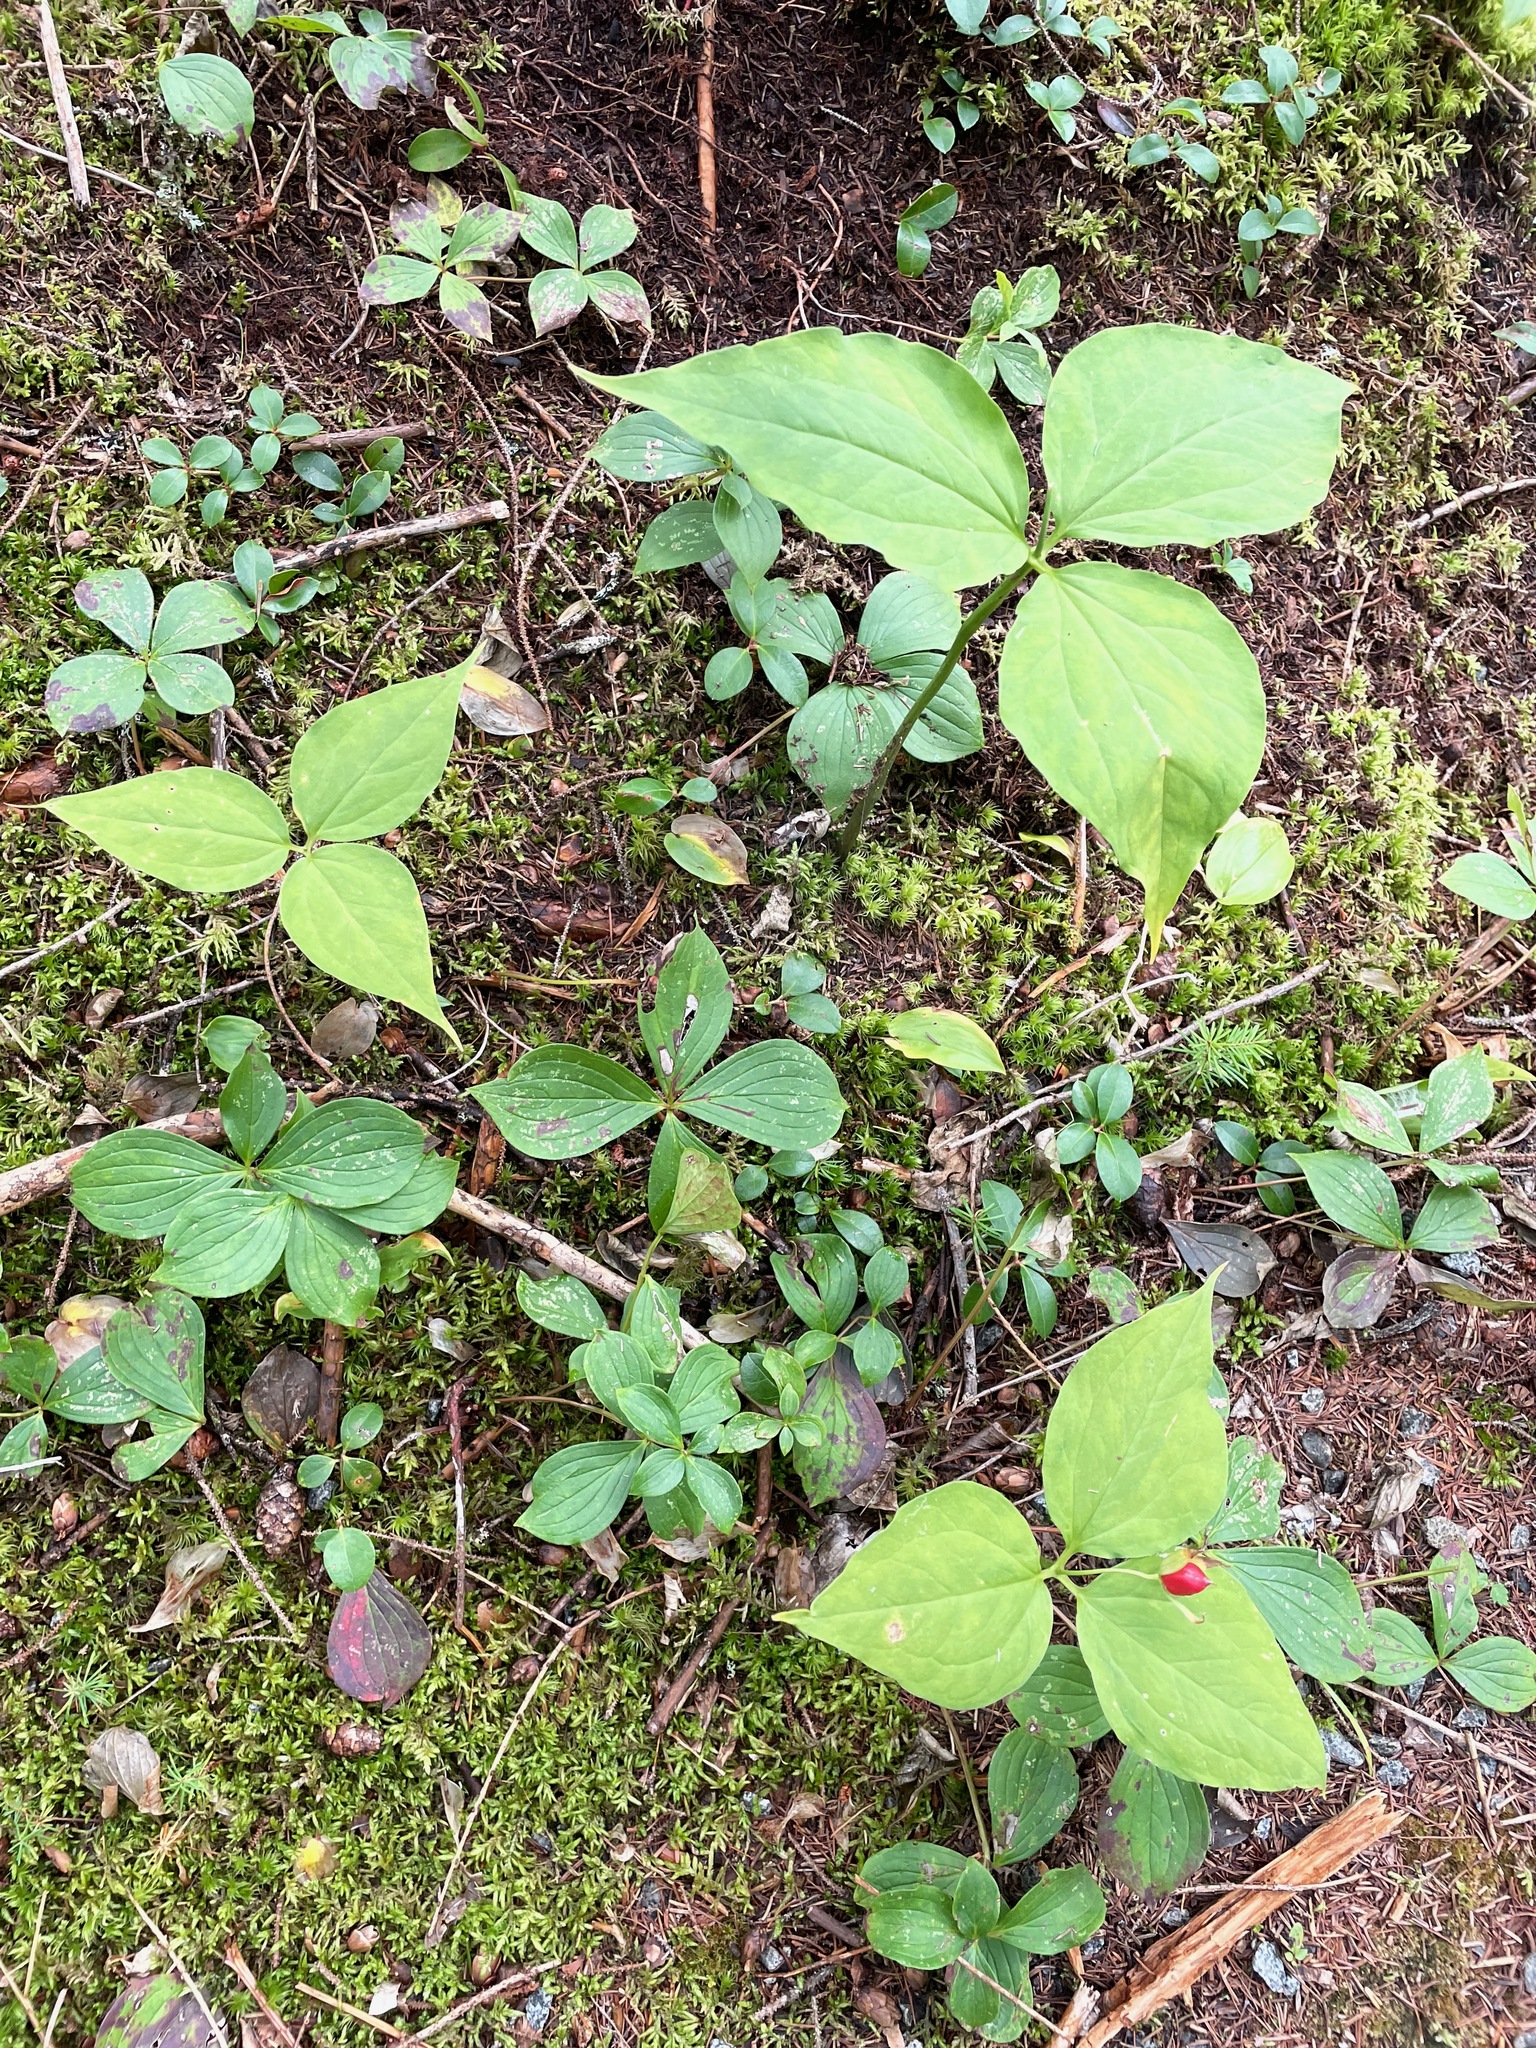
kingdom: Plantae
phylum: Tracheophyta
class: Liliopsida
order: Liliales
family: Melanthiaceae
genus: Trillium
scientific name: Trillium undulatum
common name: Paint trillium
